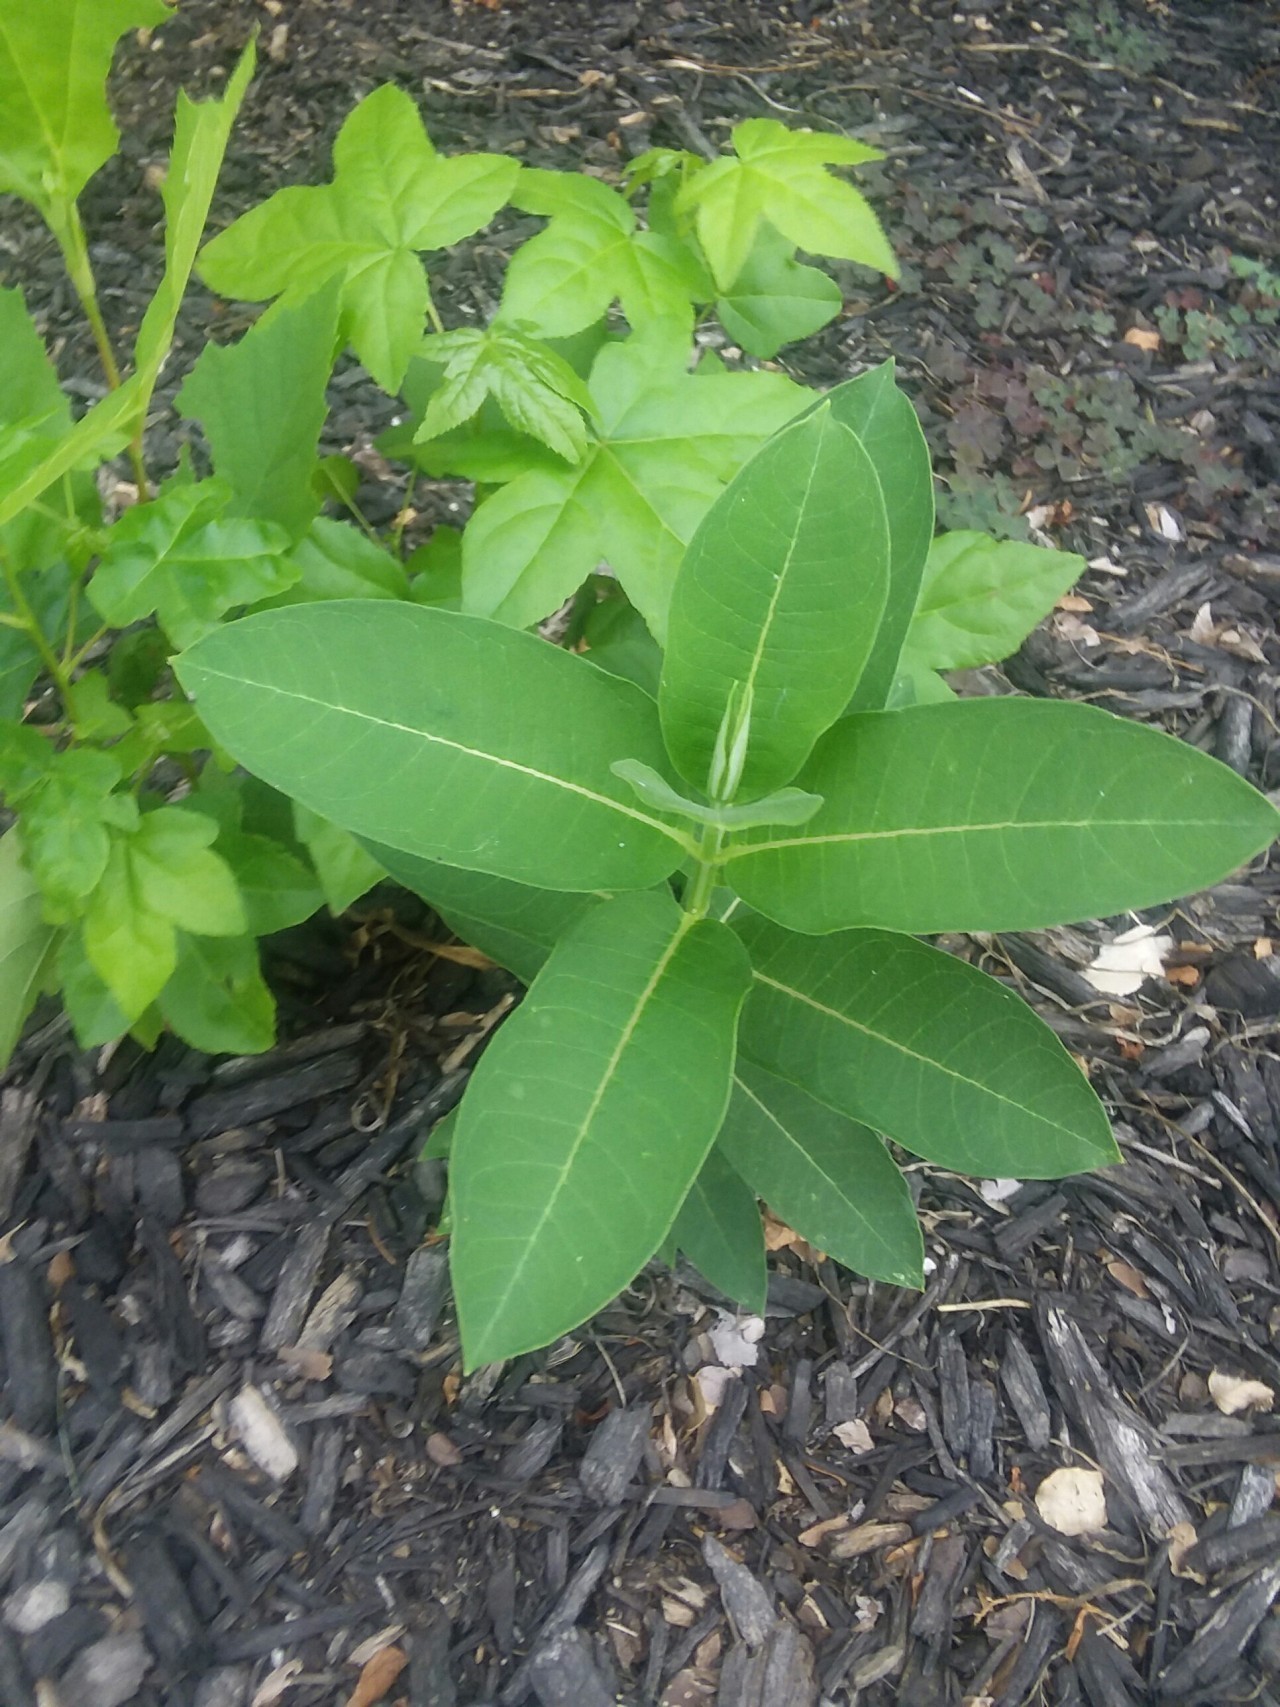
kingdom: Plantae
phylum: Tracheophyta
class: Magnoliopsida
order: Saxifragales
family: Altingiaceae
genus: Liquidambar
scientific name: Liquidambar styraciflua
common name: Sweet gum
